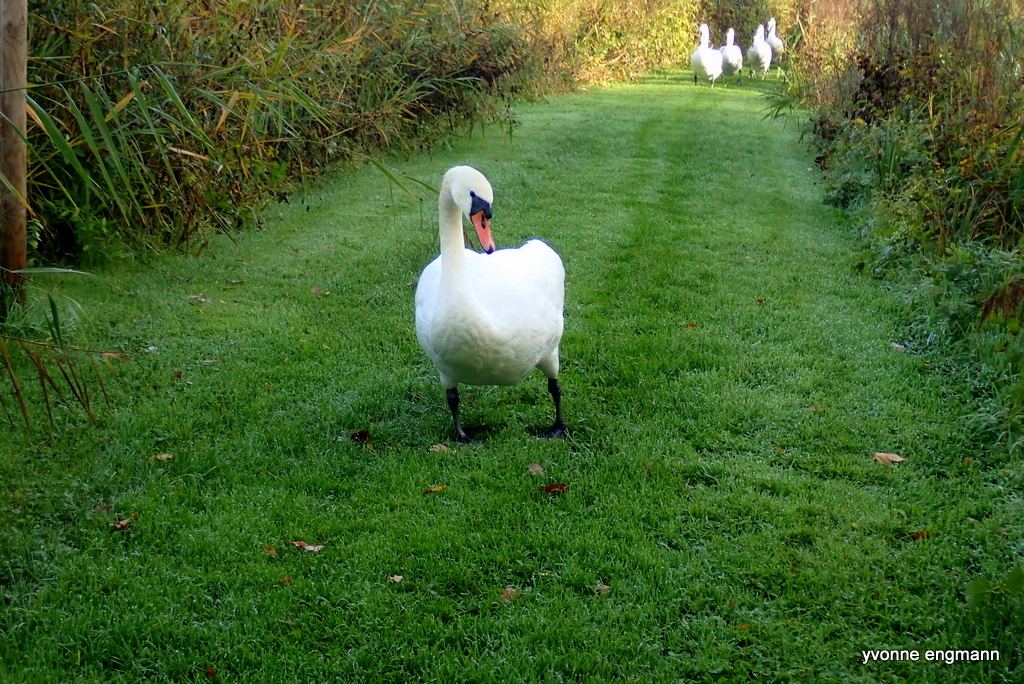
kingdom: Animalia
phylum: Chordata
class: Aves
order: Anseriformes
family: Anatidae
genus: Cygnus
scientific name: Cygnus olor
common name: Mute swan
